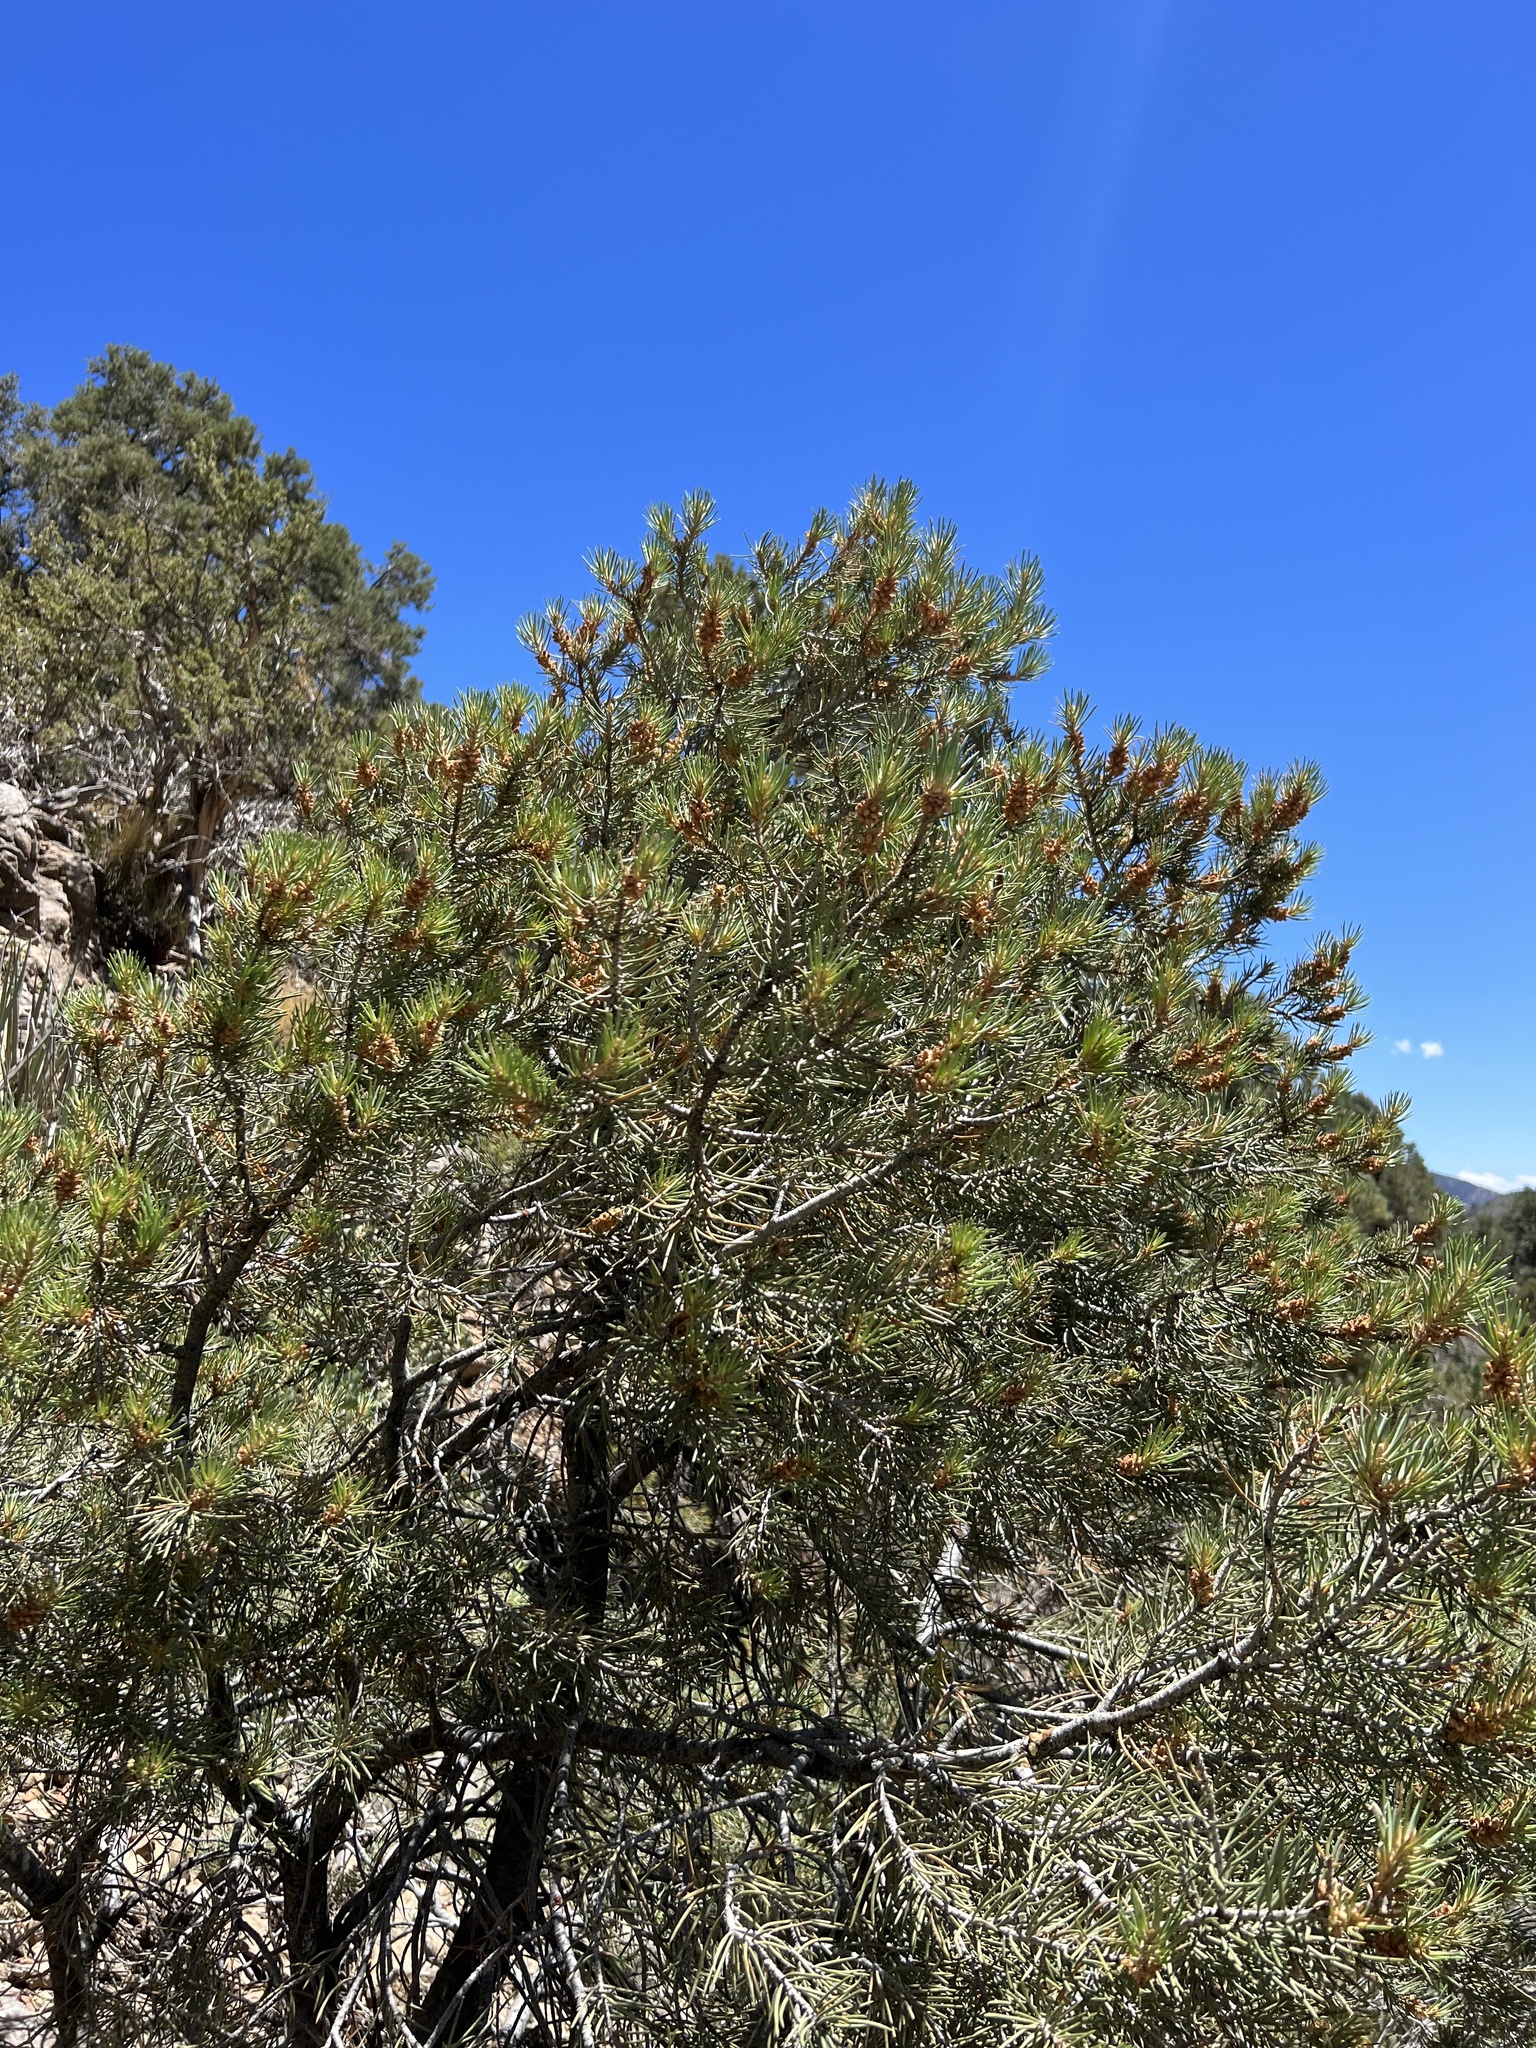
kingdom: Plantae
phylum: Tracheophyta
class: Pinopsida
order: Pinales
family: Pinaceae
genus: Pinus
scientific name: Pinus monophylla
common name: One-leaved nut pine
